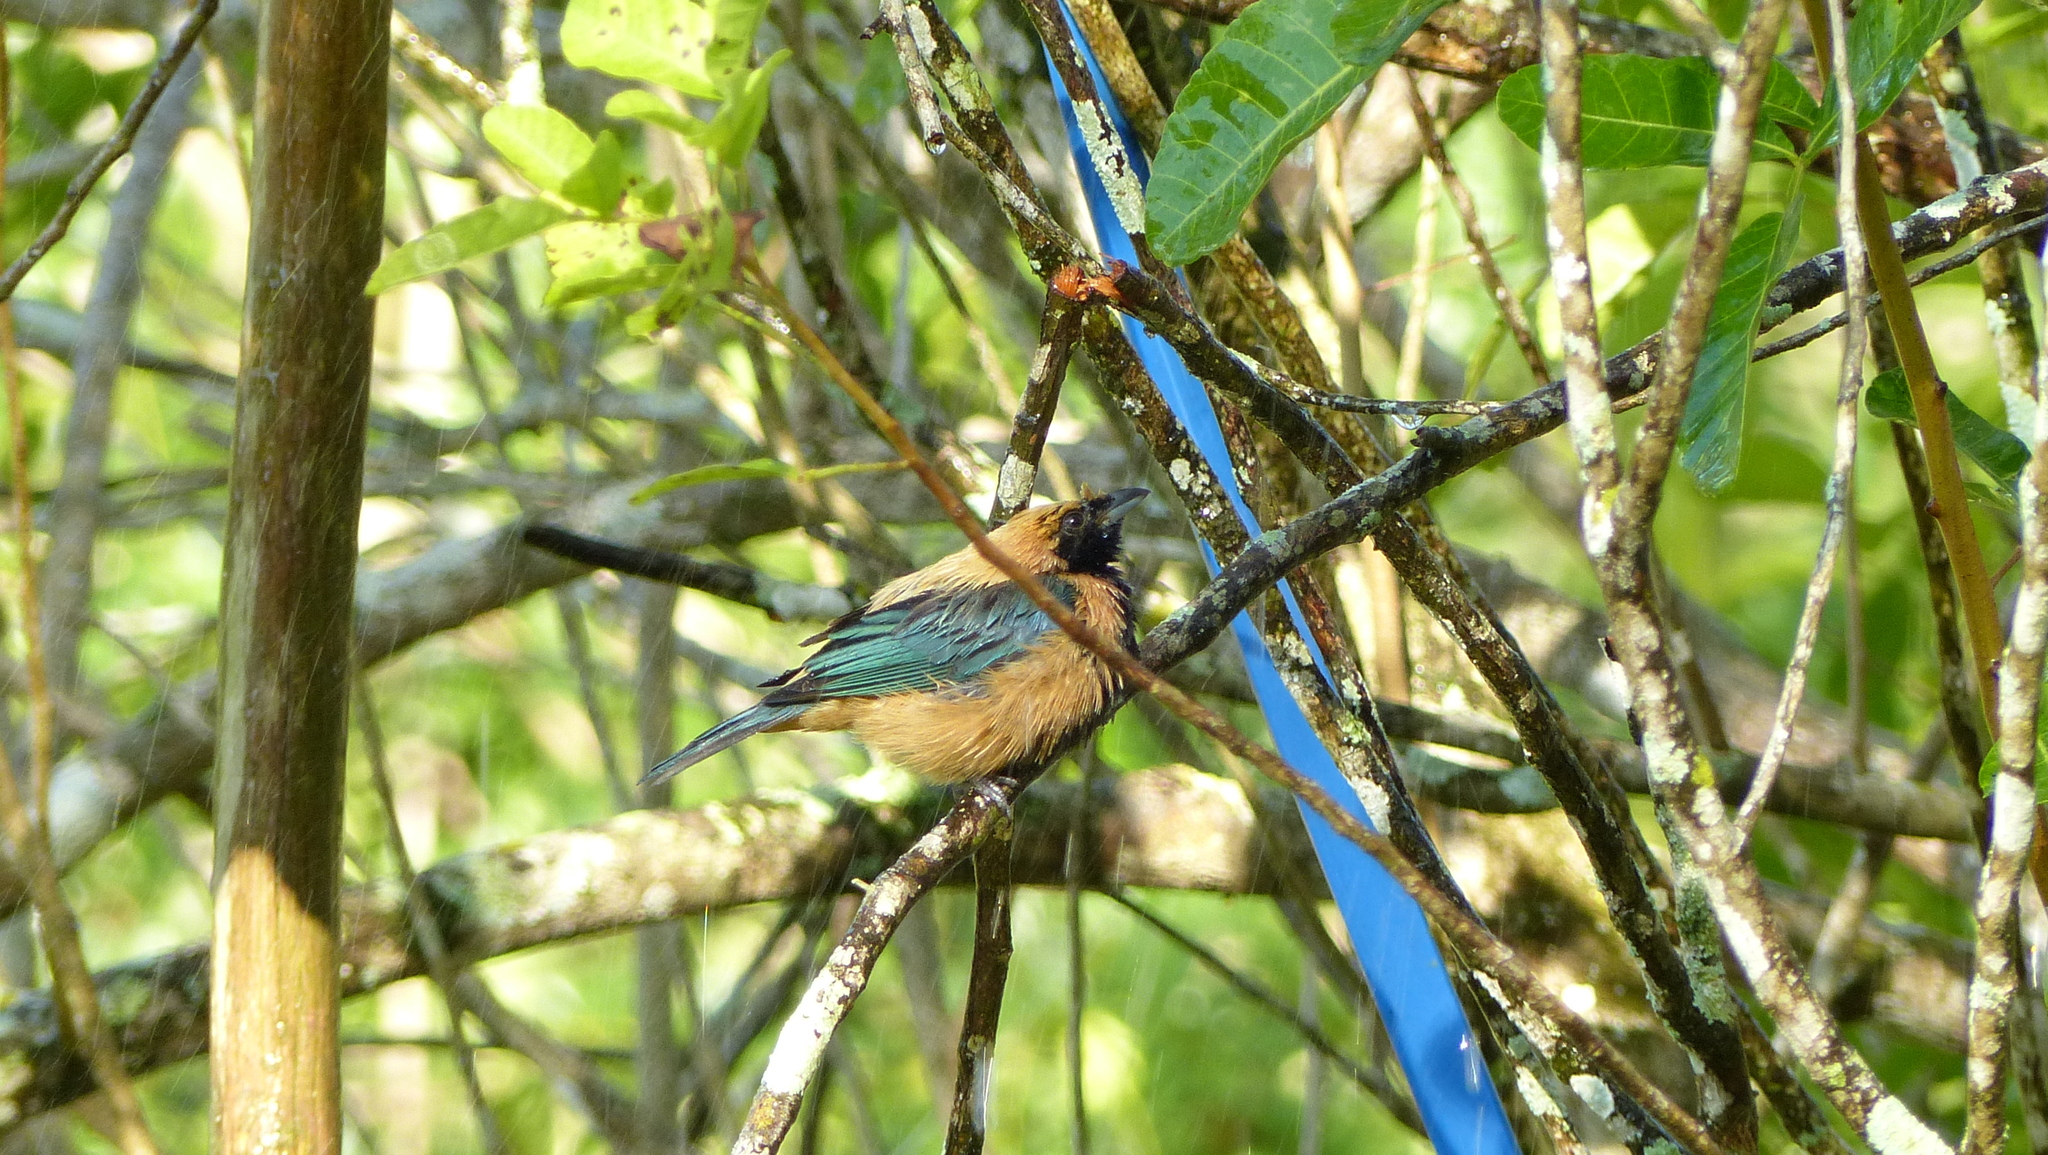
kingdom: Animalia
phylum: Chordata
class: Aves
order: Passeriformes
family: Thraupidae
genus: Stilpnia
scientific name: Stilpnia cayana
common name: Burnished-buff tanager
